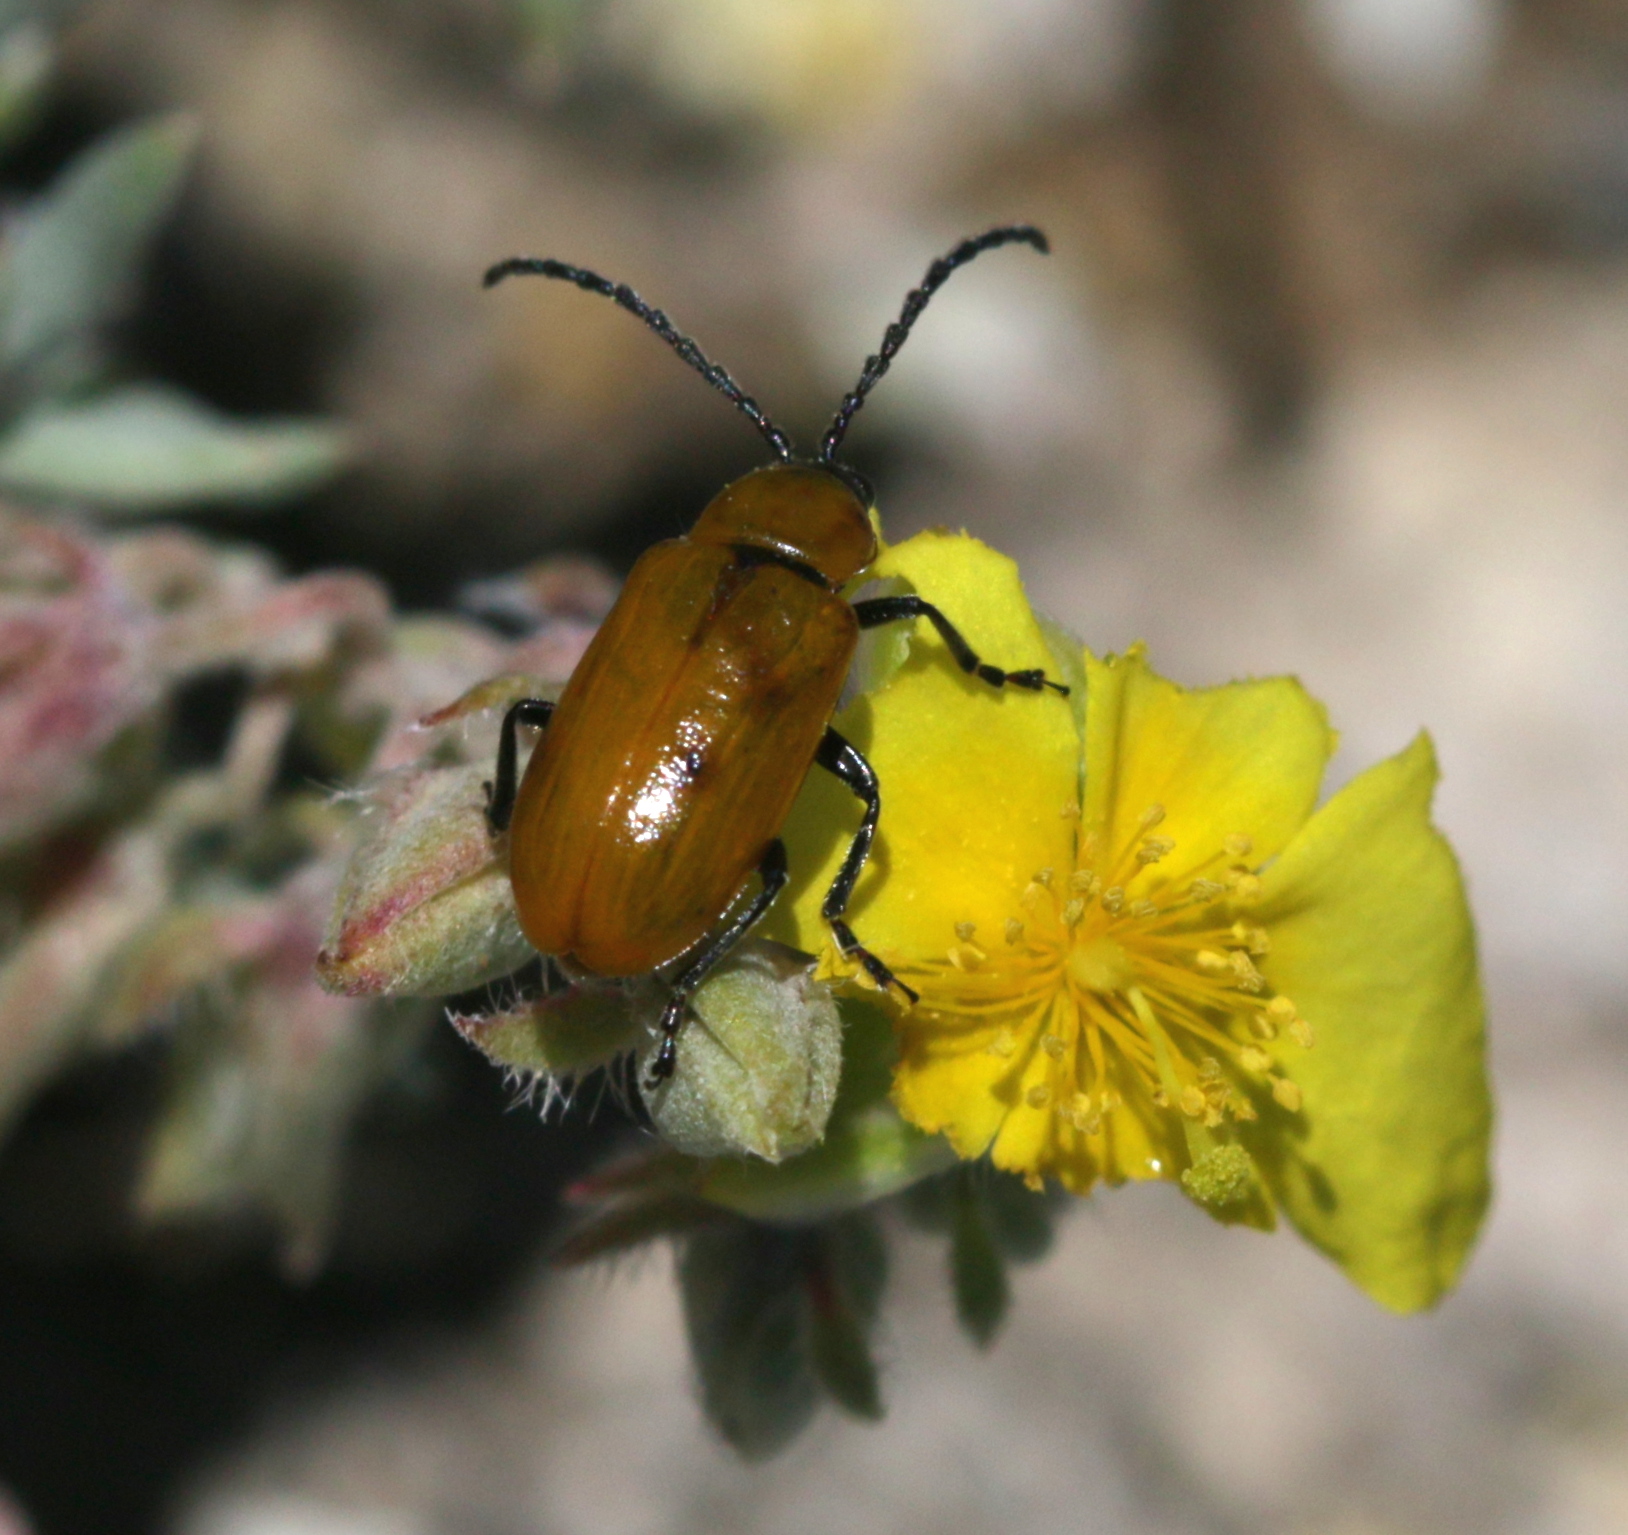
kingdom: Animalia
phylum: Arthropoda
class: Insecta
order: Coleoptera
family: Chrysomelidae
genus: Exosoma
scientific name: Exosoma lusitanicum
